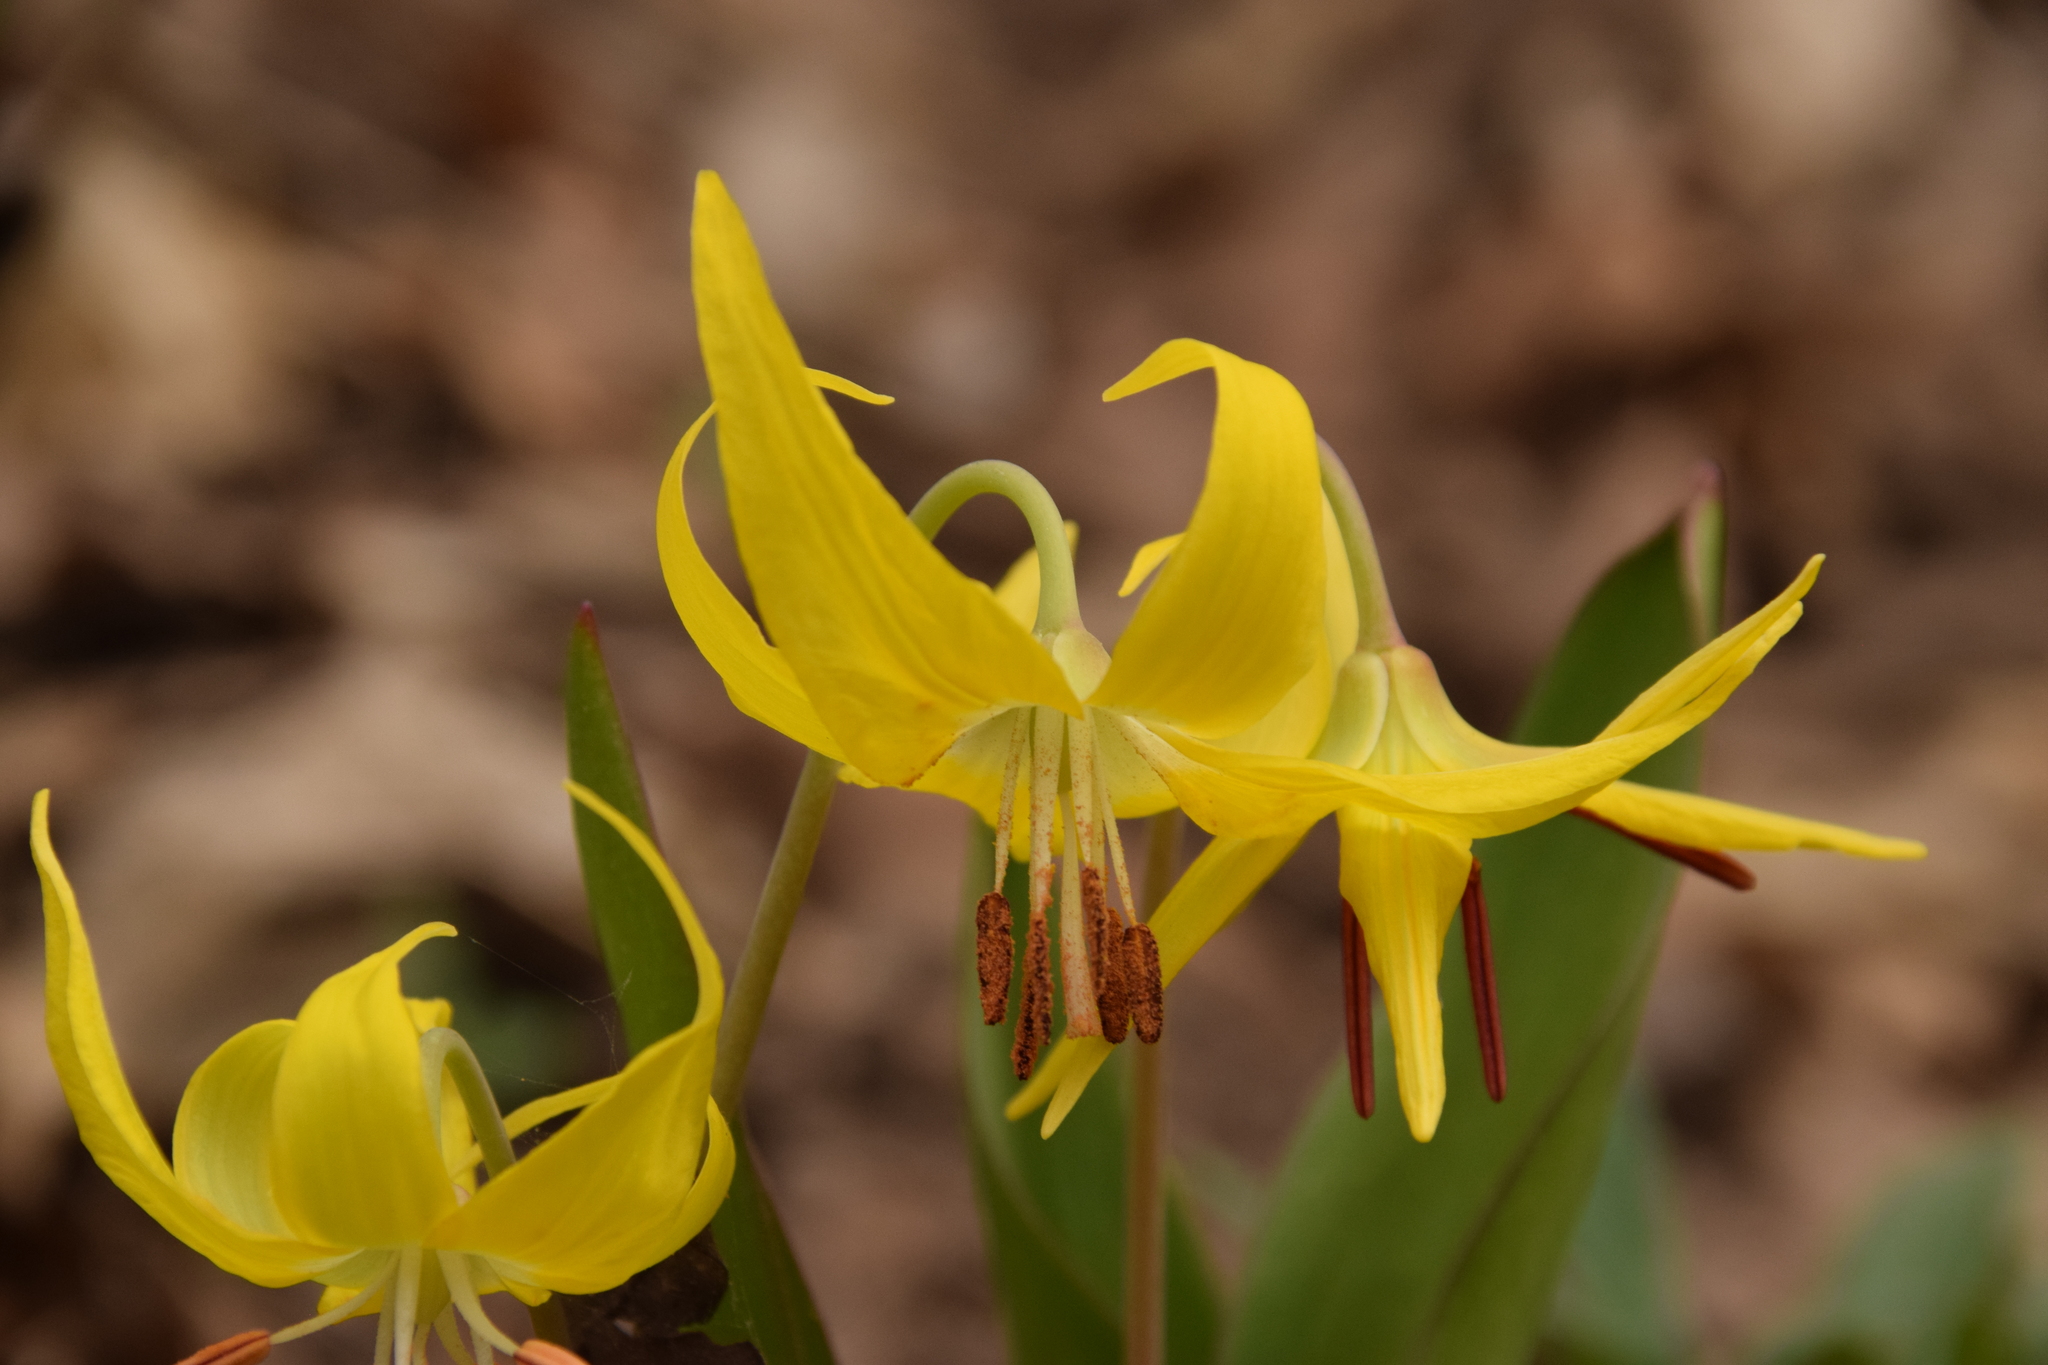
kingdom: Plantae
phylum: Tracheophyta
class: Liliopsida
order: Liliales
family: Liliaceae
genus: Erythronium
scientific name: Erythronium grandiflorum
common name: Avalanche-lily
